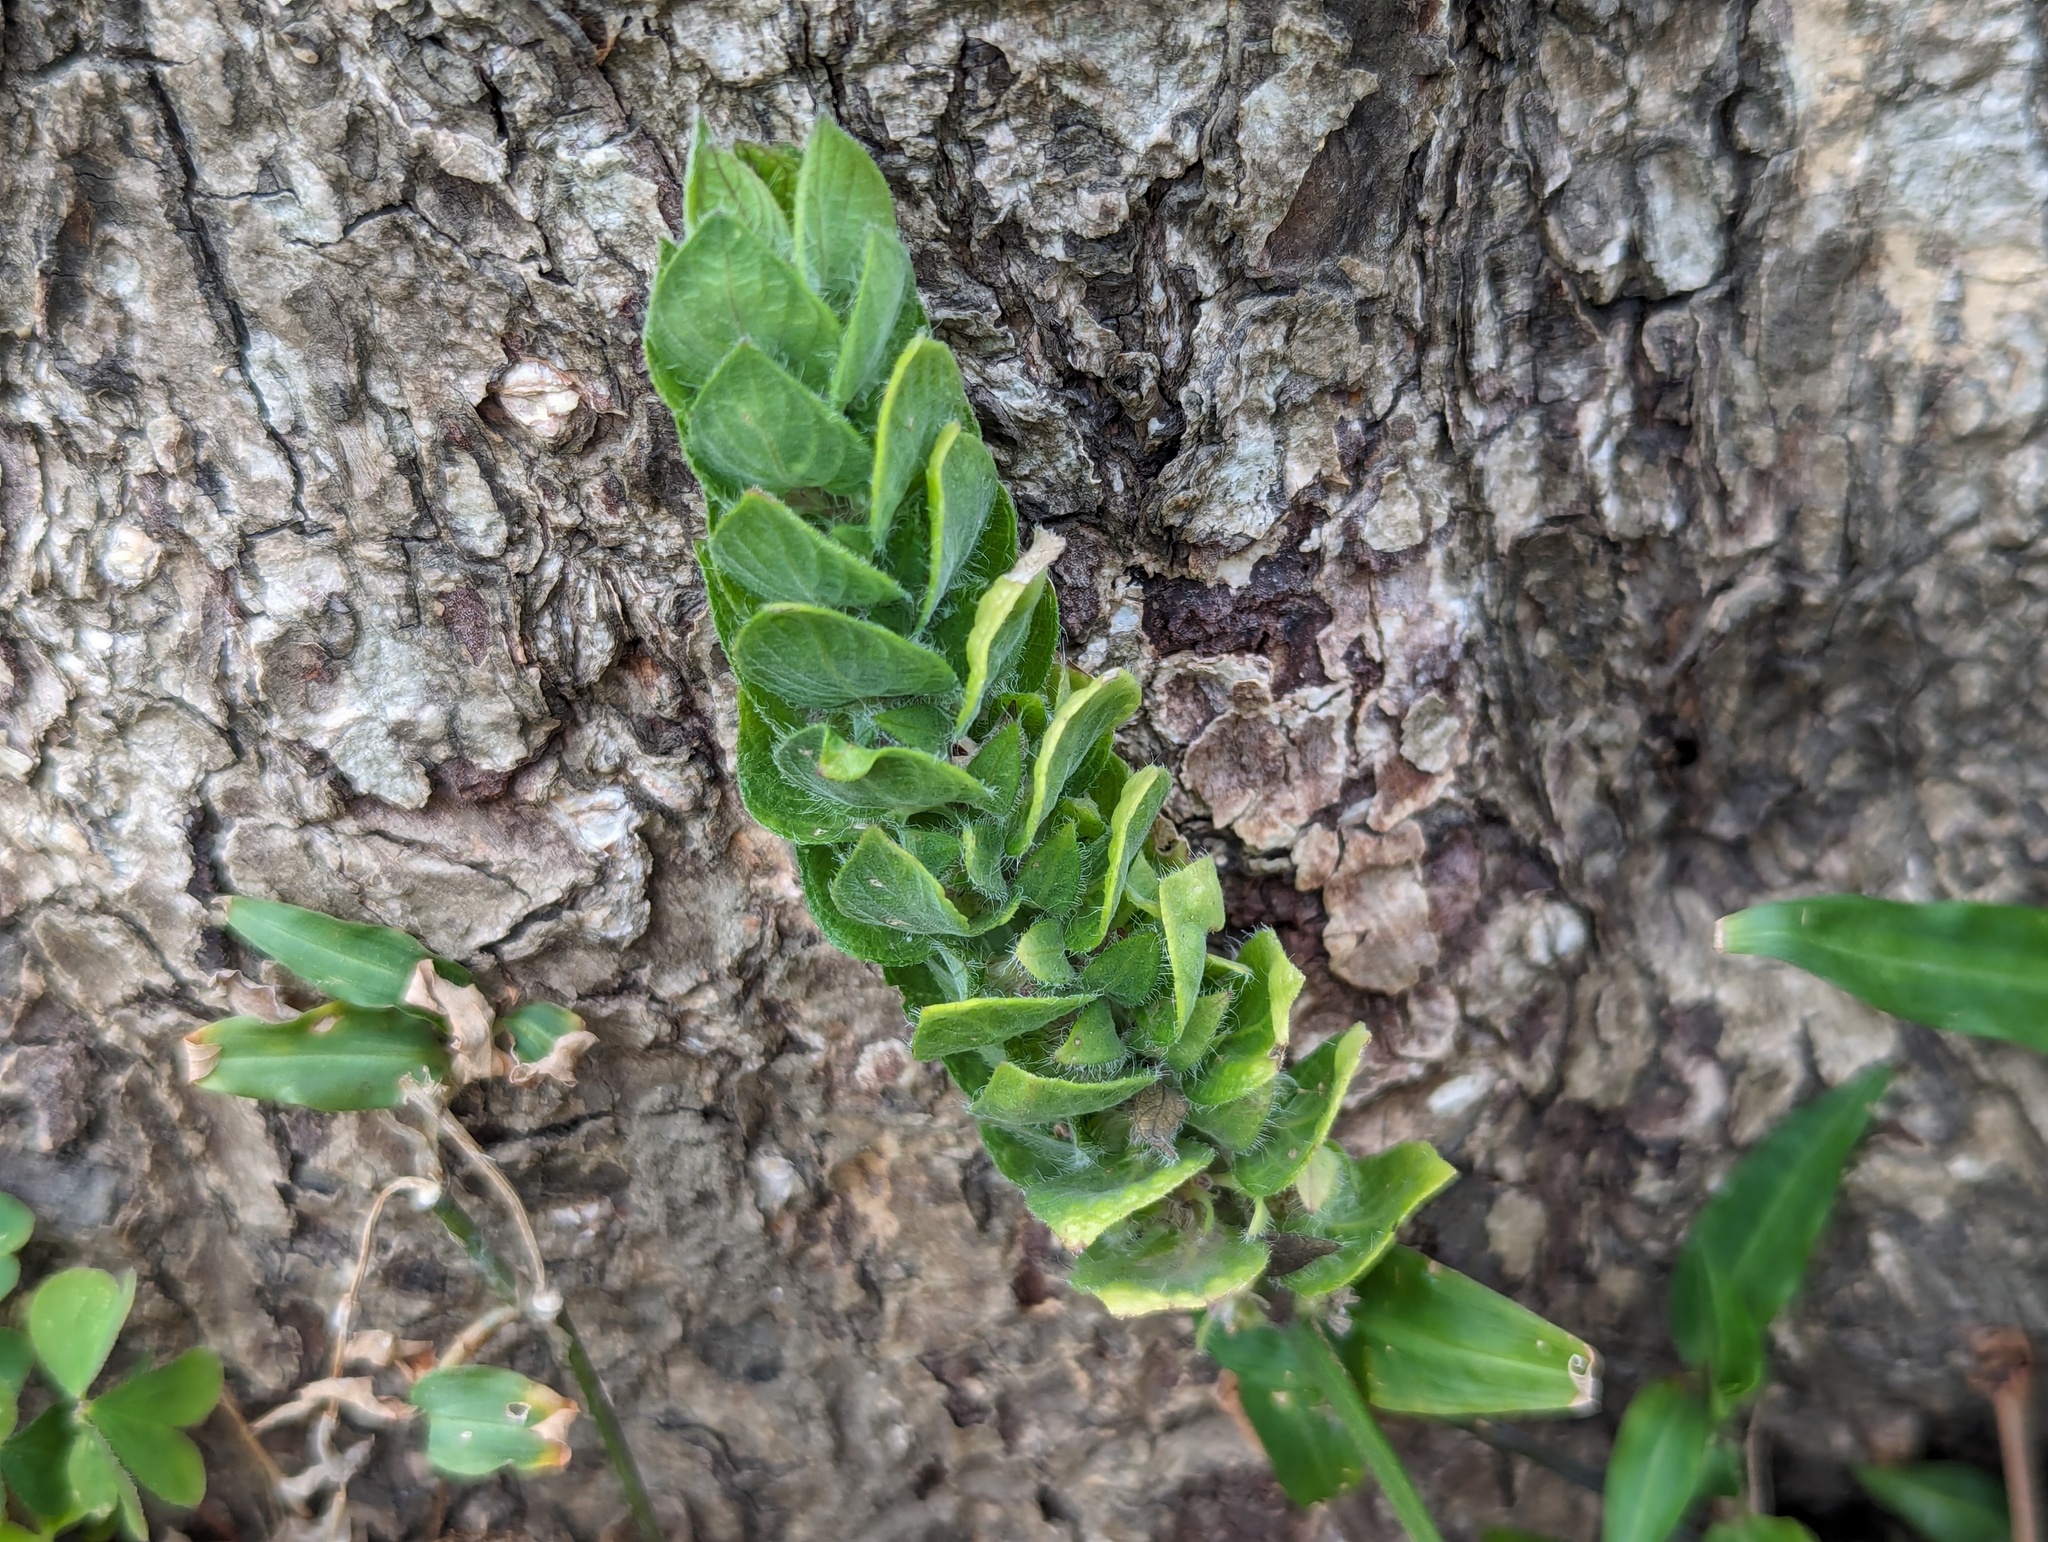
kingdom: Plantae
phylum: Tracheophyta
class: Magnoliopsida
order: Lamiales
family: Acanthaceae
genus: Ruellia
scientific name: Ruellia blechum
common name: Browne's blechum
